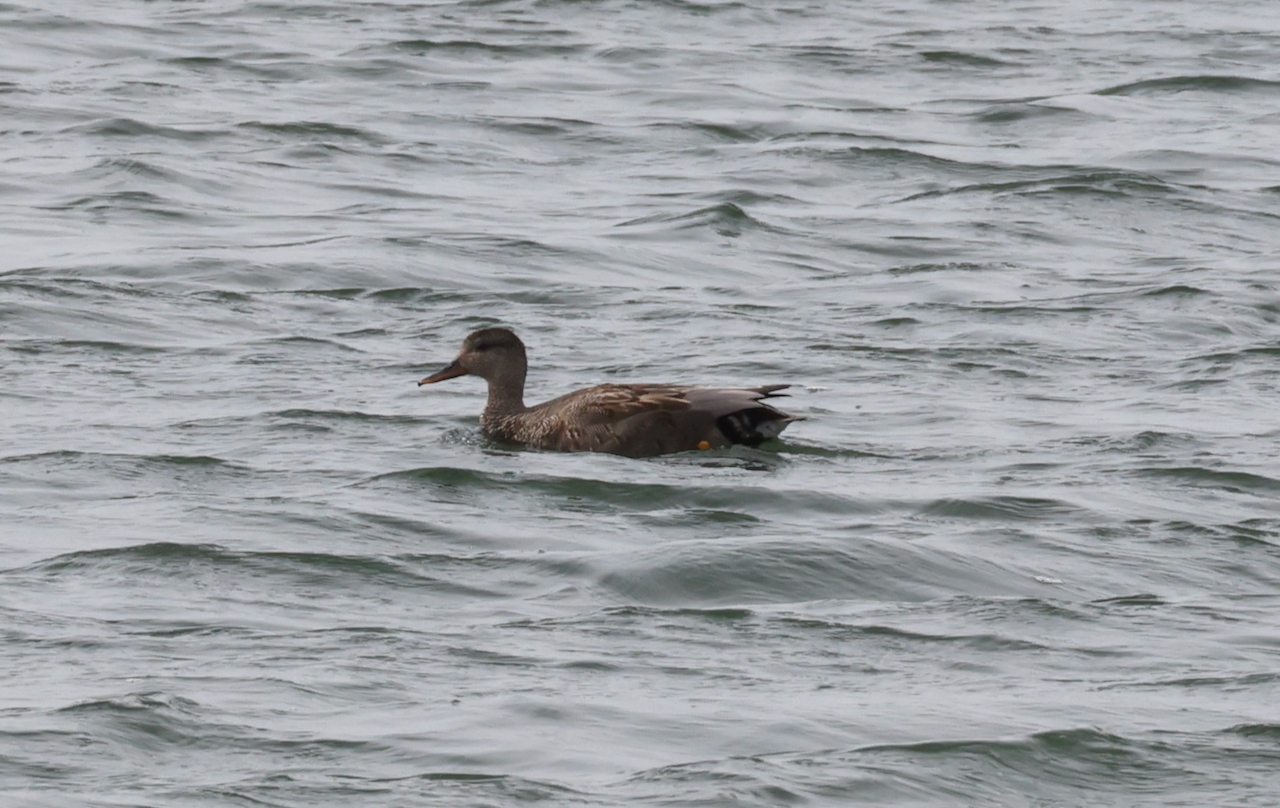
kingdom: Animalia
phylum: Chordata
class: Aves
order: Anseriformes
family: Anatidae
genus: Mareca
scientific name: Mareca strepera
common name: Gadwall
